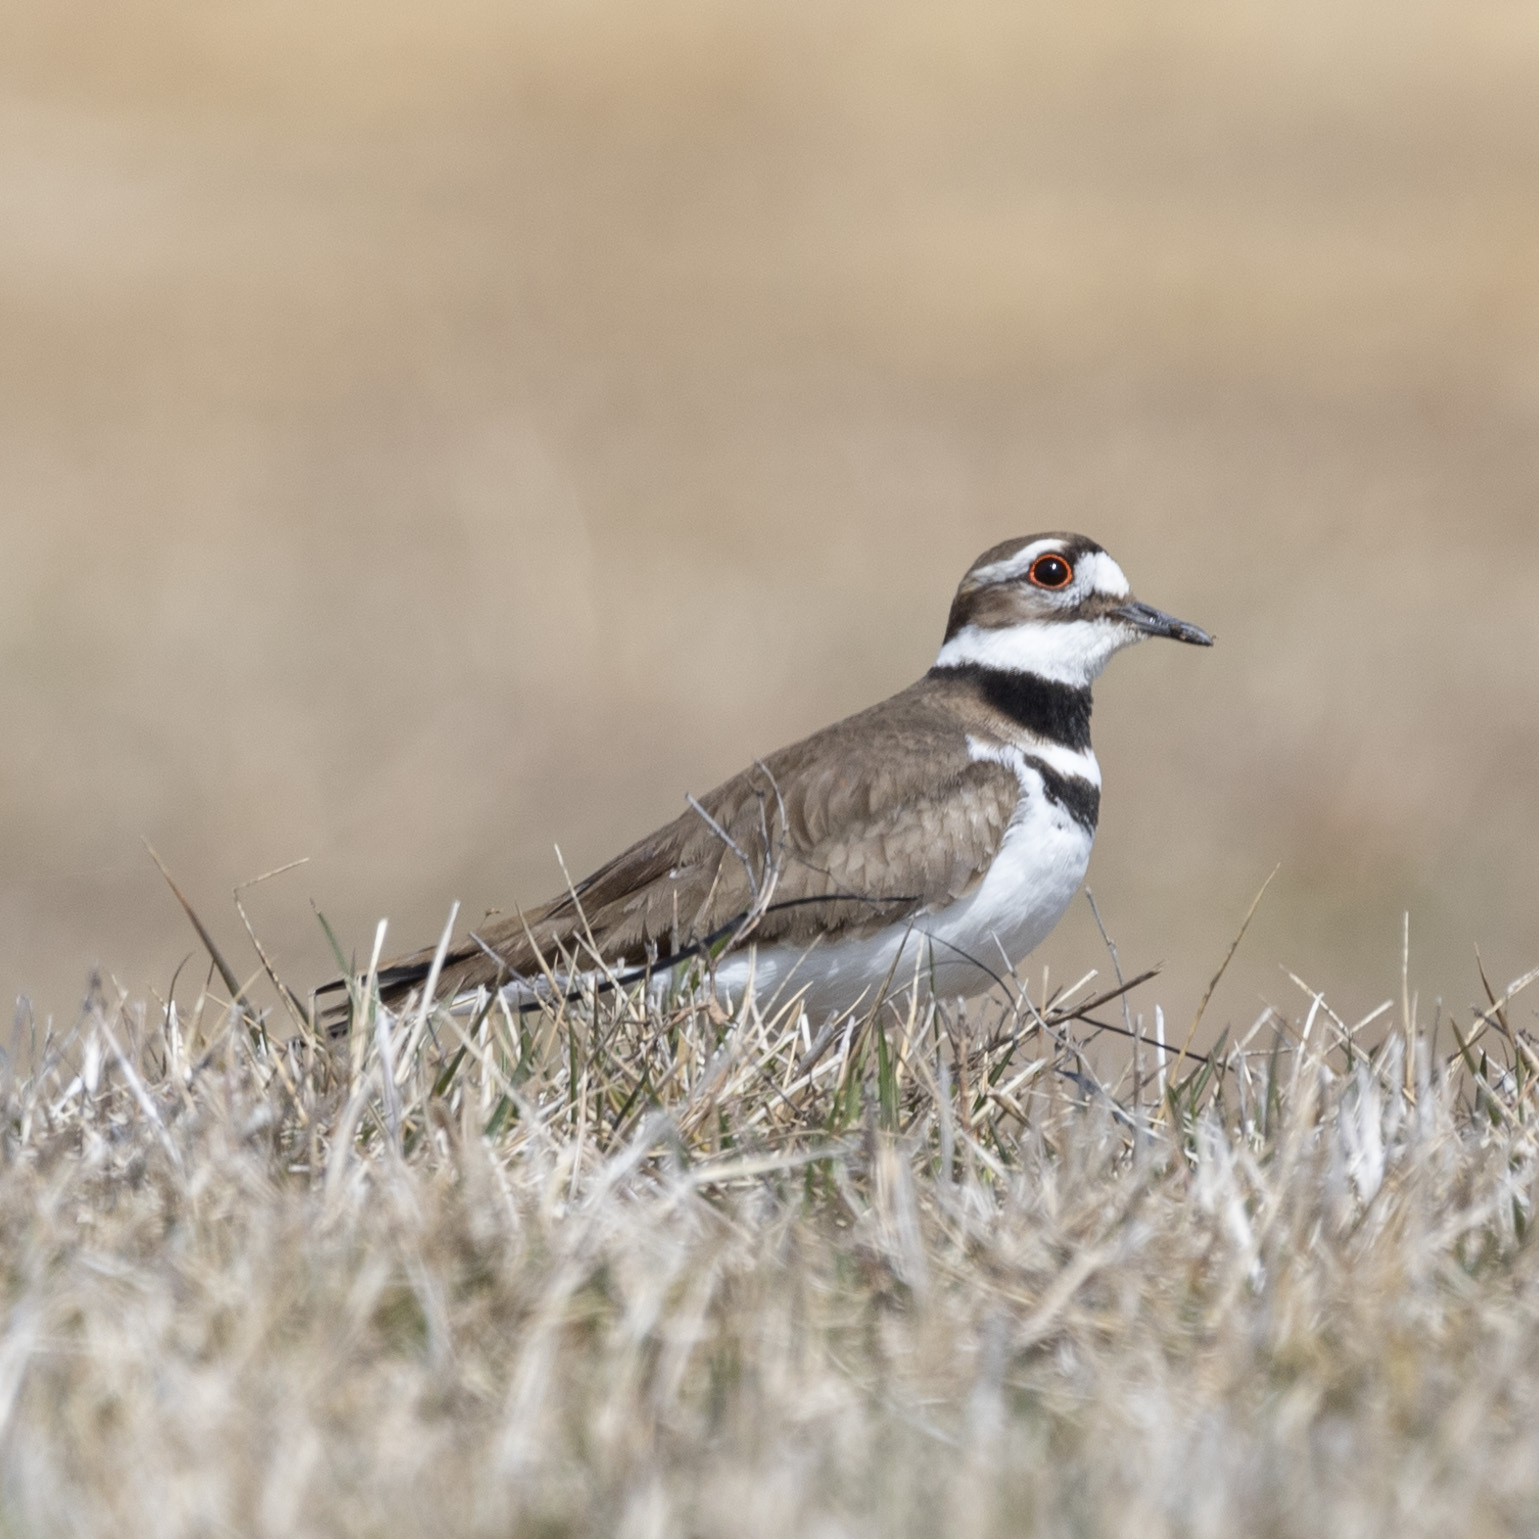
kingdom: Animalia
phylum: Chordata
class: Aves
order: Charadriiformes
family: Charadriidae
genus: Charadrius
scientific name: Charadrius vociferus
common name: Killdeer
